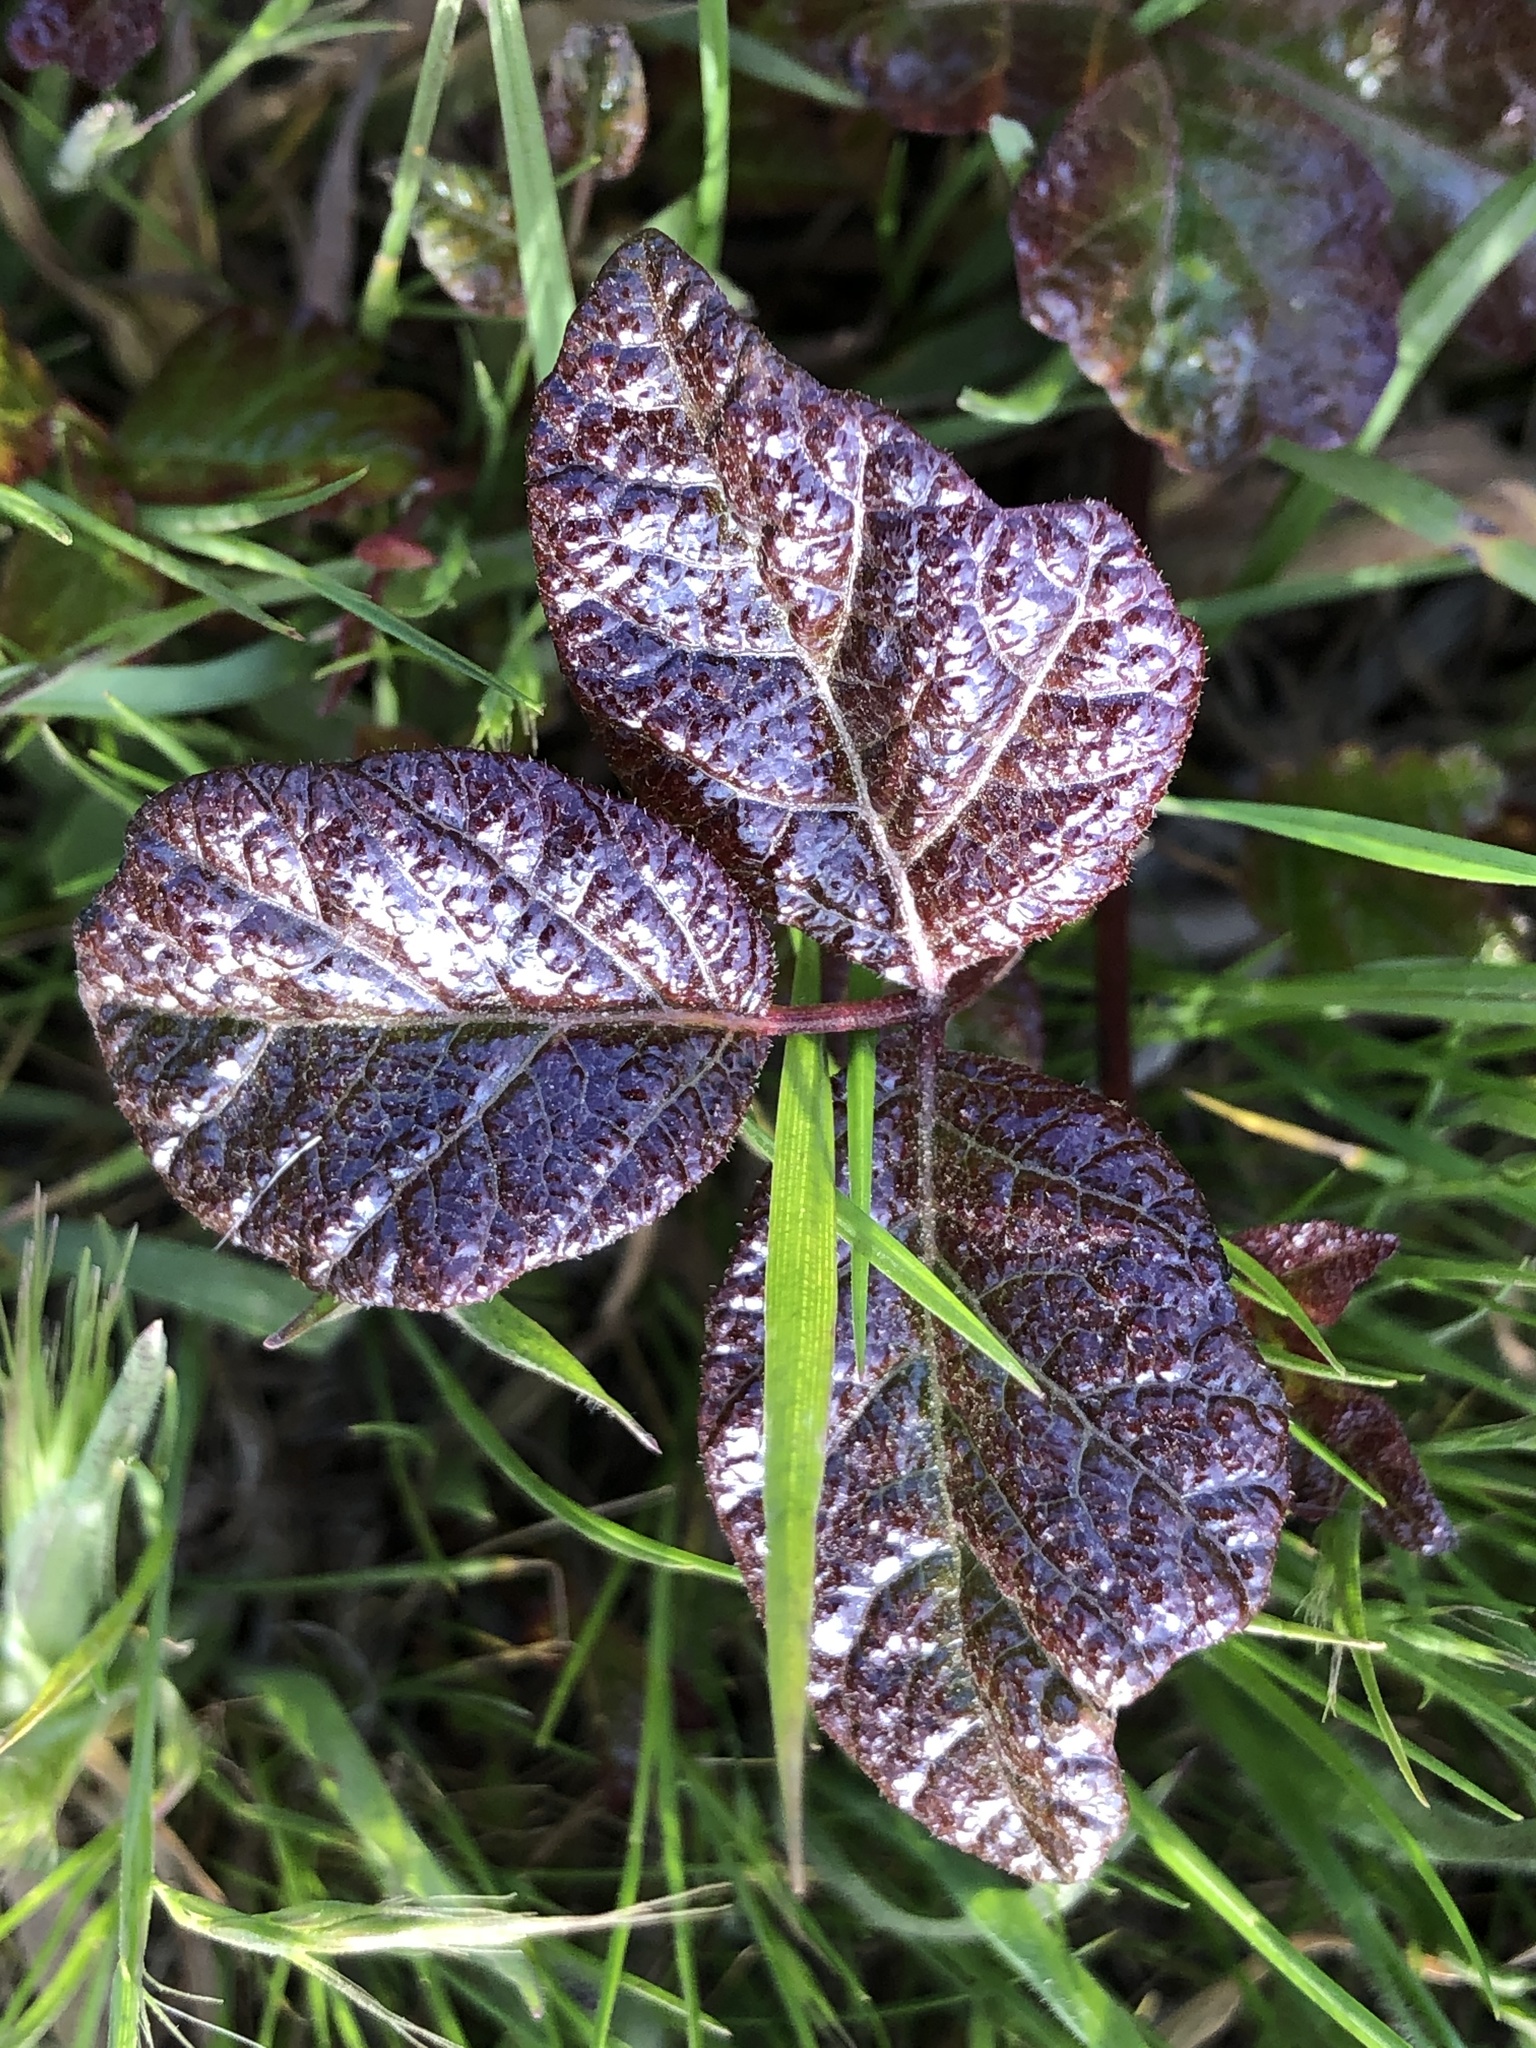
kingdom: Plantae
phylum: Tracheophyta
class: Magnoliopsida
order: Sapindales
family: Anacardiaceae
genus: Toxicodendron
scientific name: Toxicodendron diversilobum
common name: Pacific poison-oak
